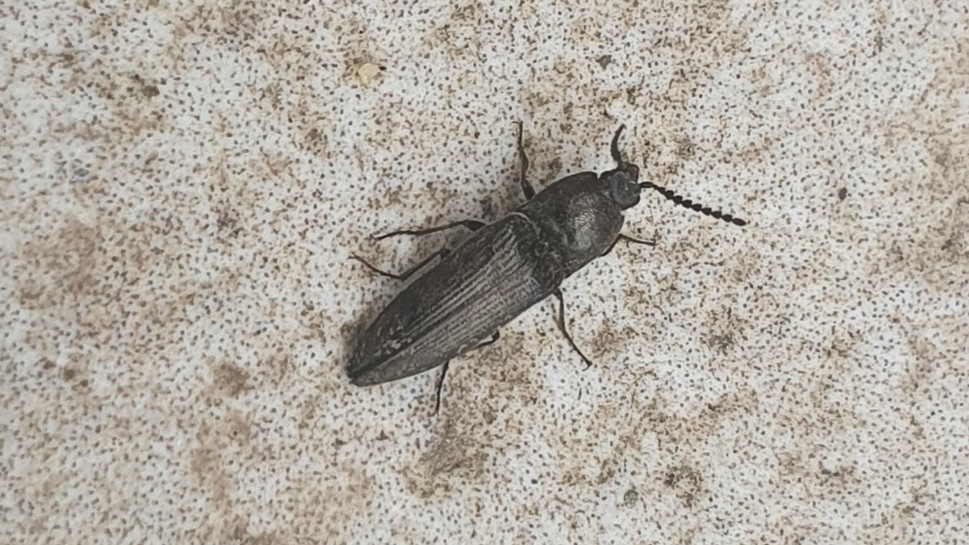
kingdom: Animalia
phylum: Arthropoda
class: Insecta
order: Coleoptera
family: Elateridae
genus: Cidnopus
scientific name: Cidnopus pilosus
